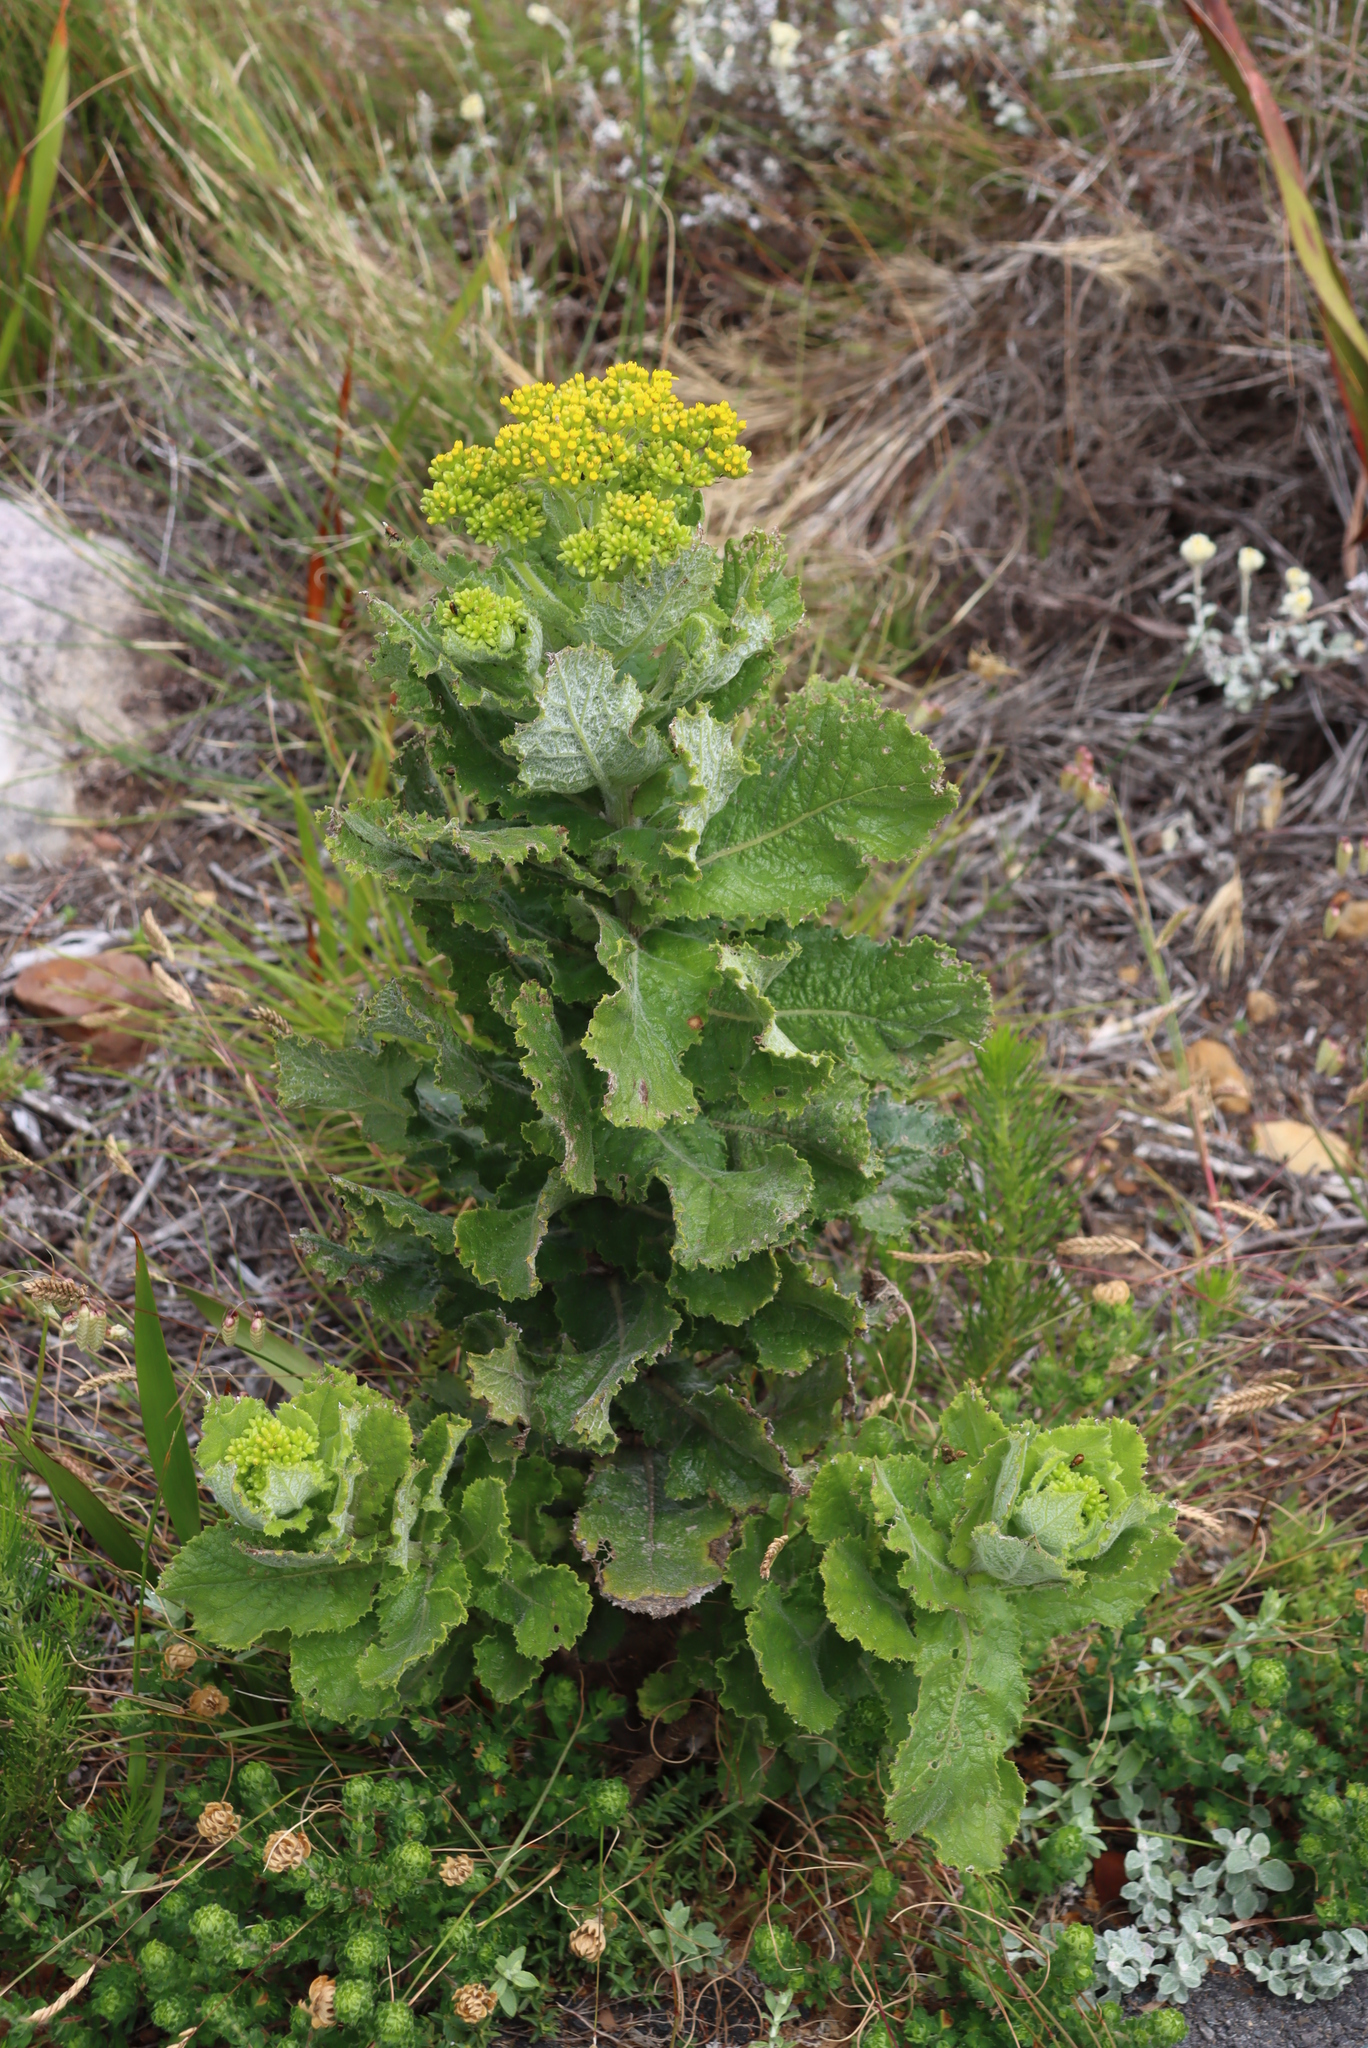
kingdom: Plantae
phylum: Tracheophyta
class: Magnoliopsida
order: Asterales
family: Asteraceae
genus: Senecio
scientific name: Senecio rigidus
